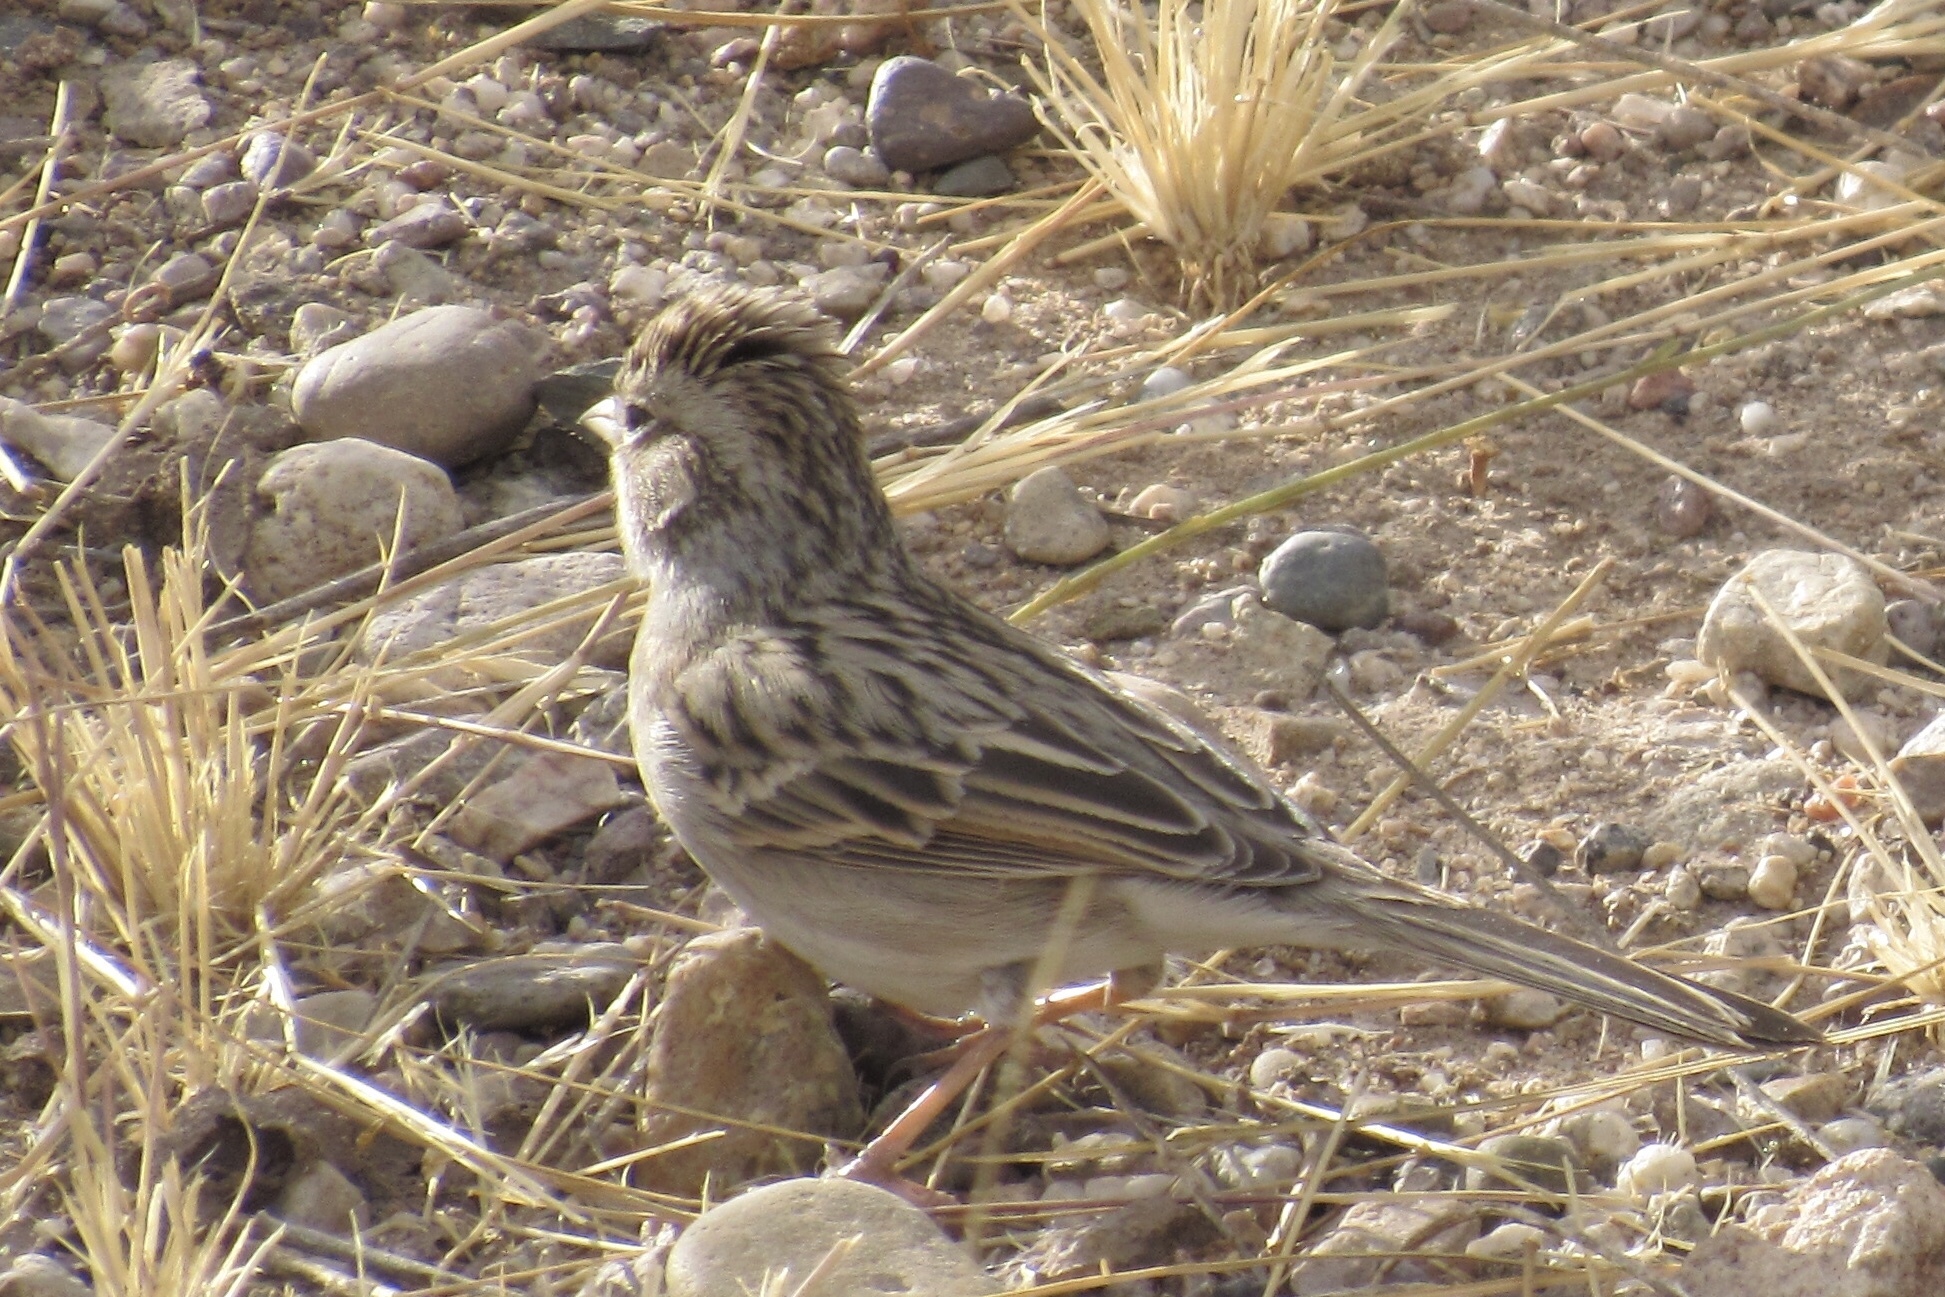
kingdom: Animalia
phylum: Chordata
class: Aves
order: Passeriformes
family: Passerellidae
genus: Spizella
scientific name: Spizella breweri
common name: Brewer's sparrow
